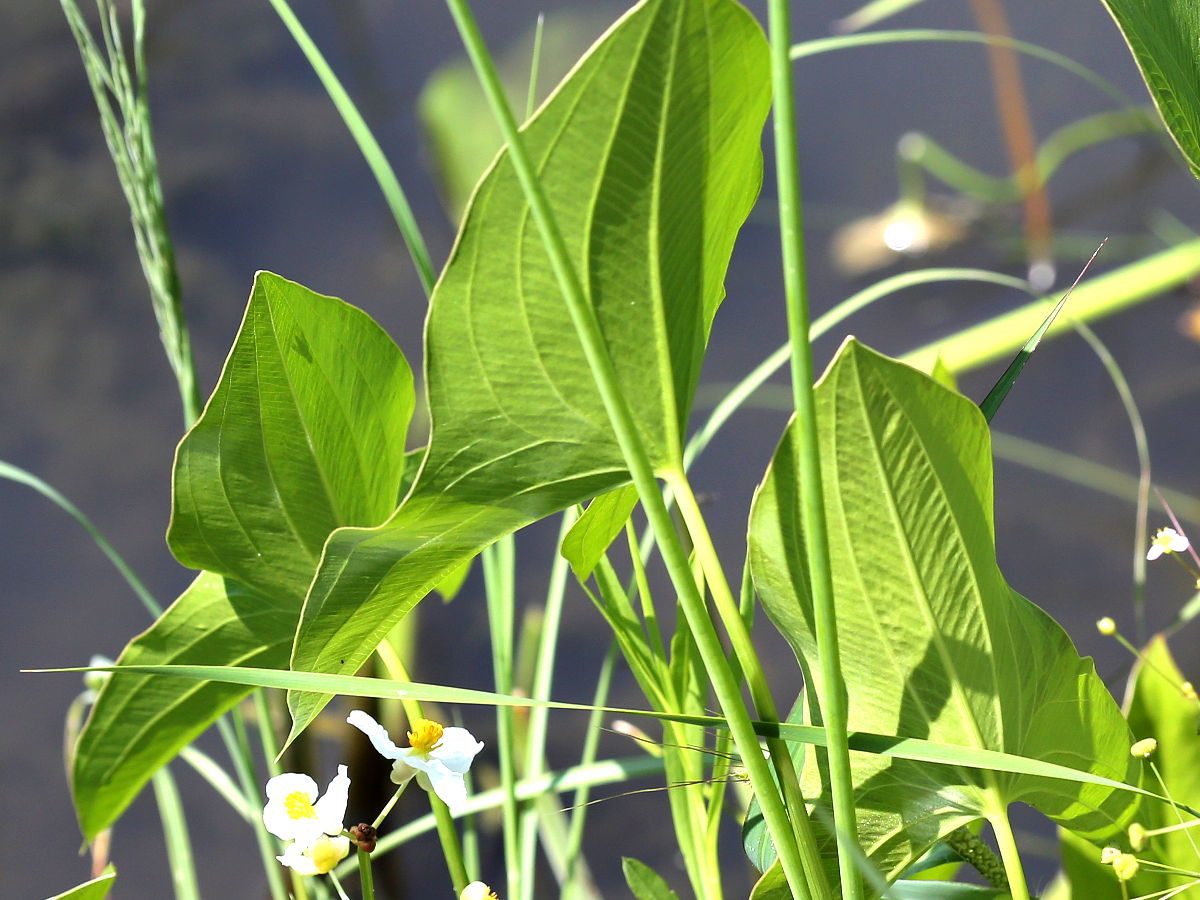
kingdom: Plantae
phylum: Tracheophyta
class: Liliopsida
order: Alismatales
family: Alismataceae
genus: Sagittaria
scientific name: Sagittaria latifolia
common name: Duck-potato
